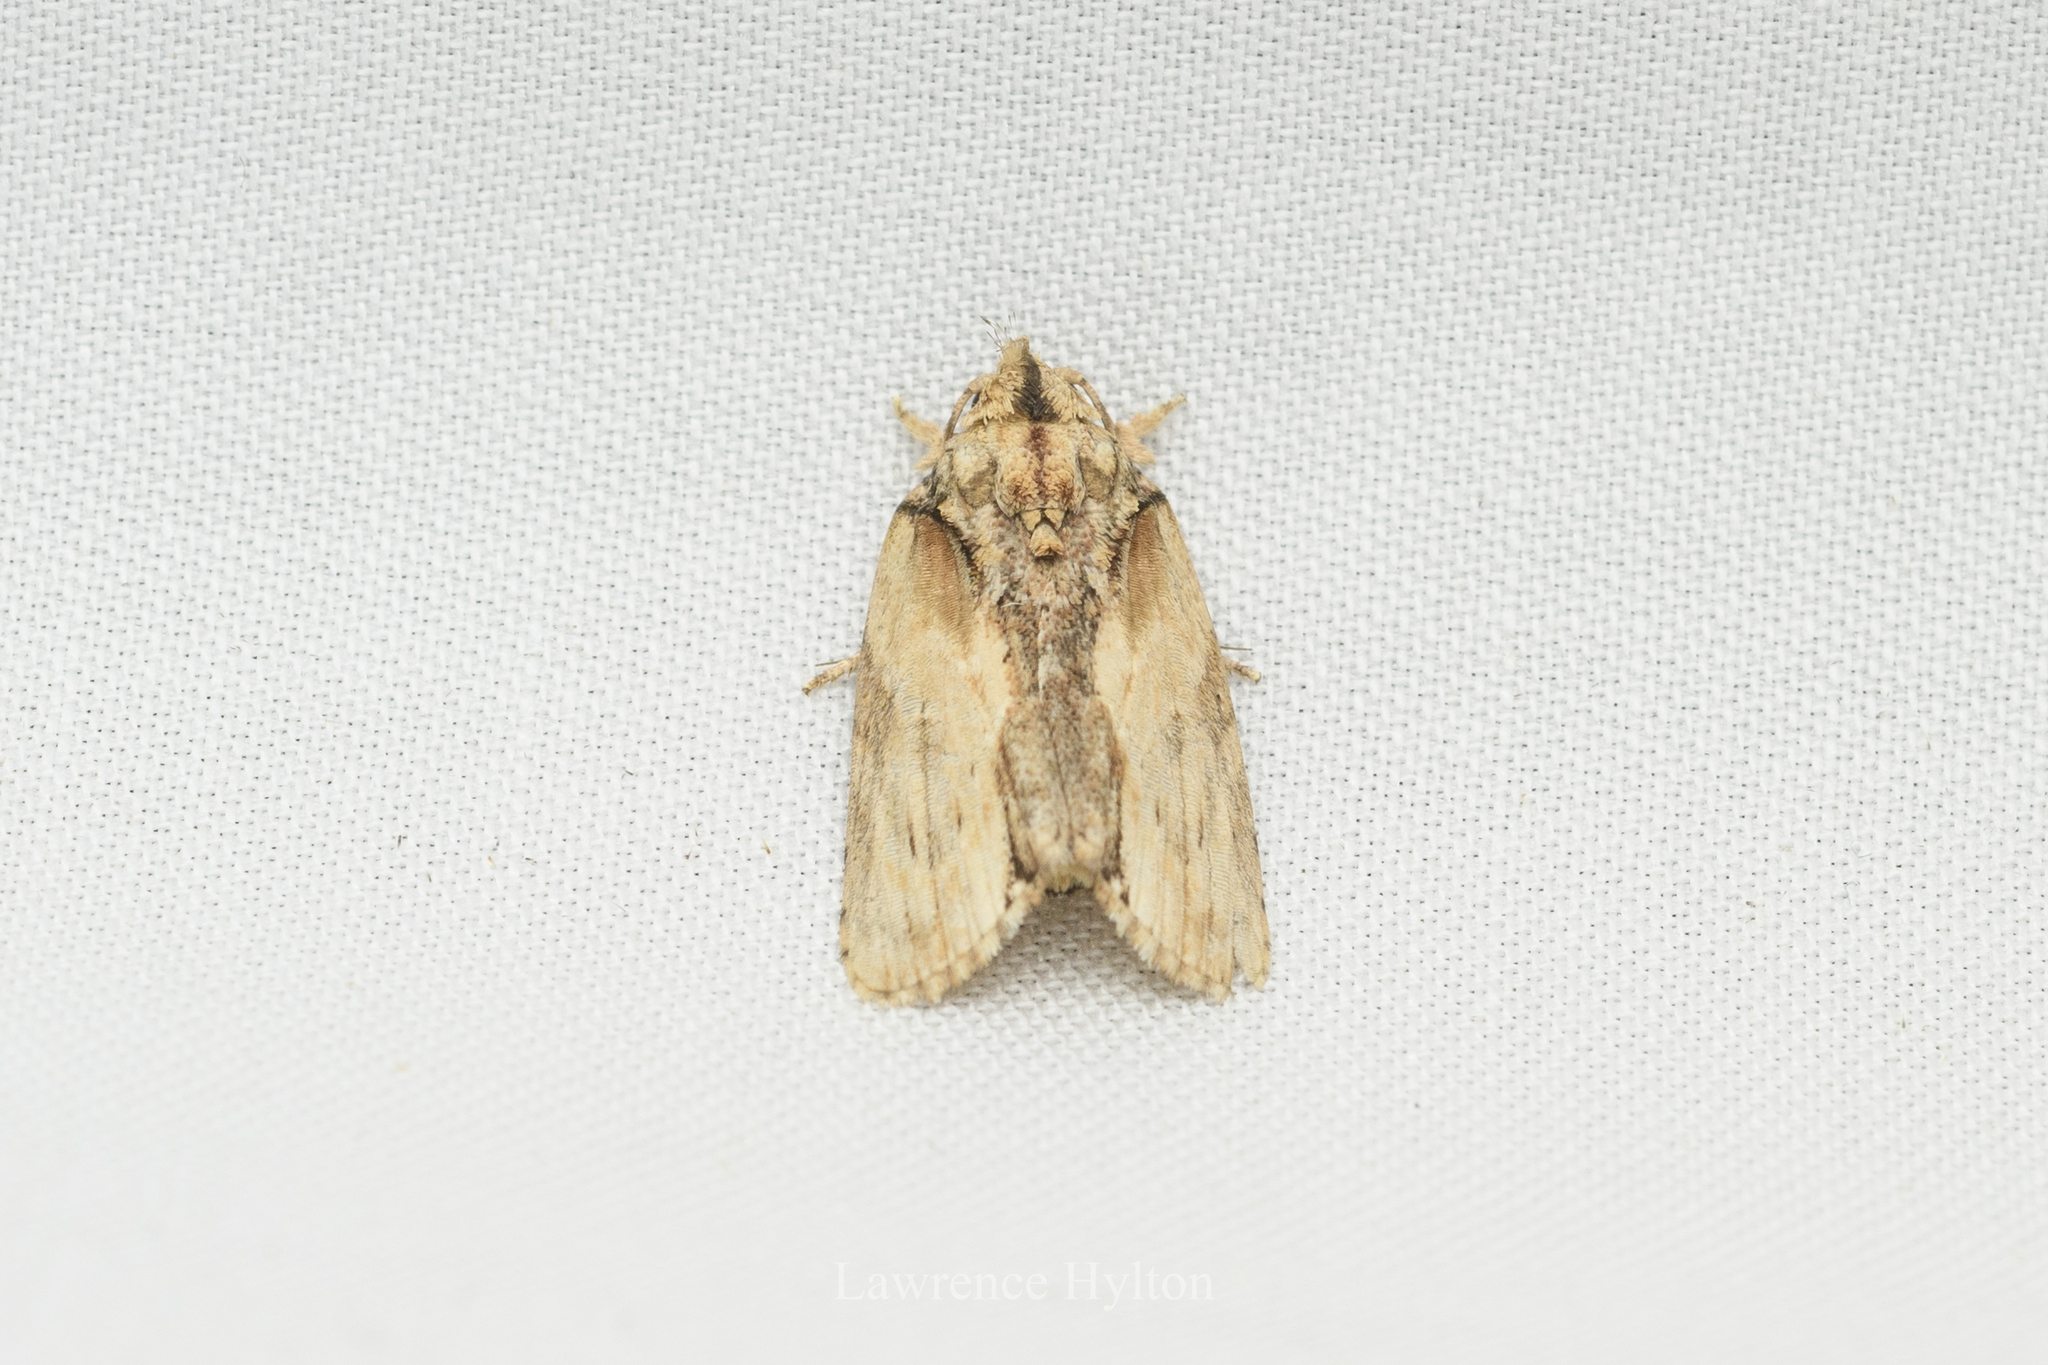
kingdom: Animalia
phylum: Arthropoda
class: Insecta
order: Lepidoptera
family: Nolidae
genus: Etanna
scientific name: Etanna breviuscula
